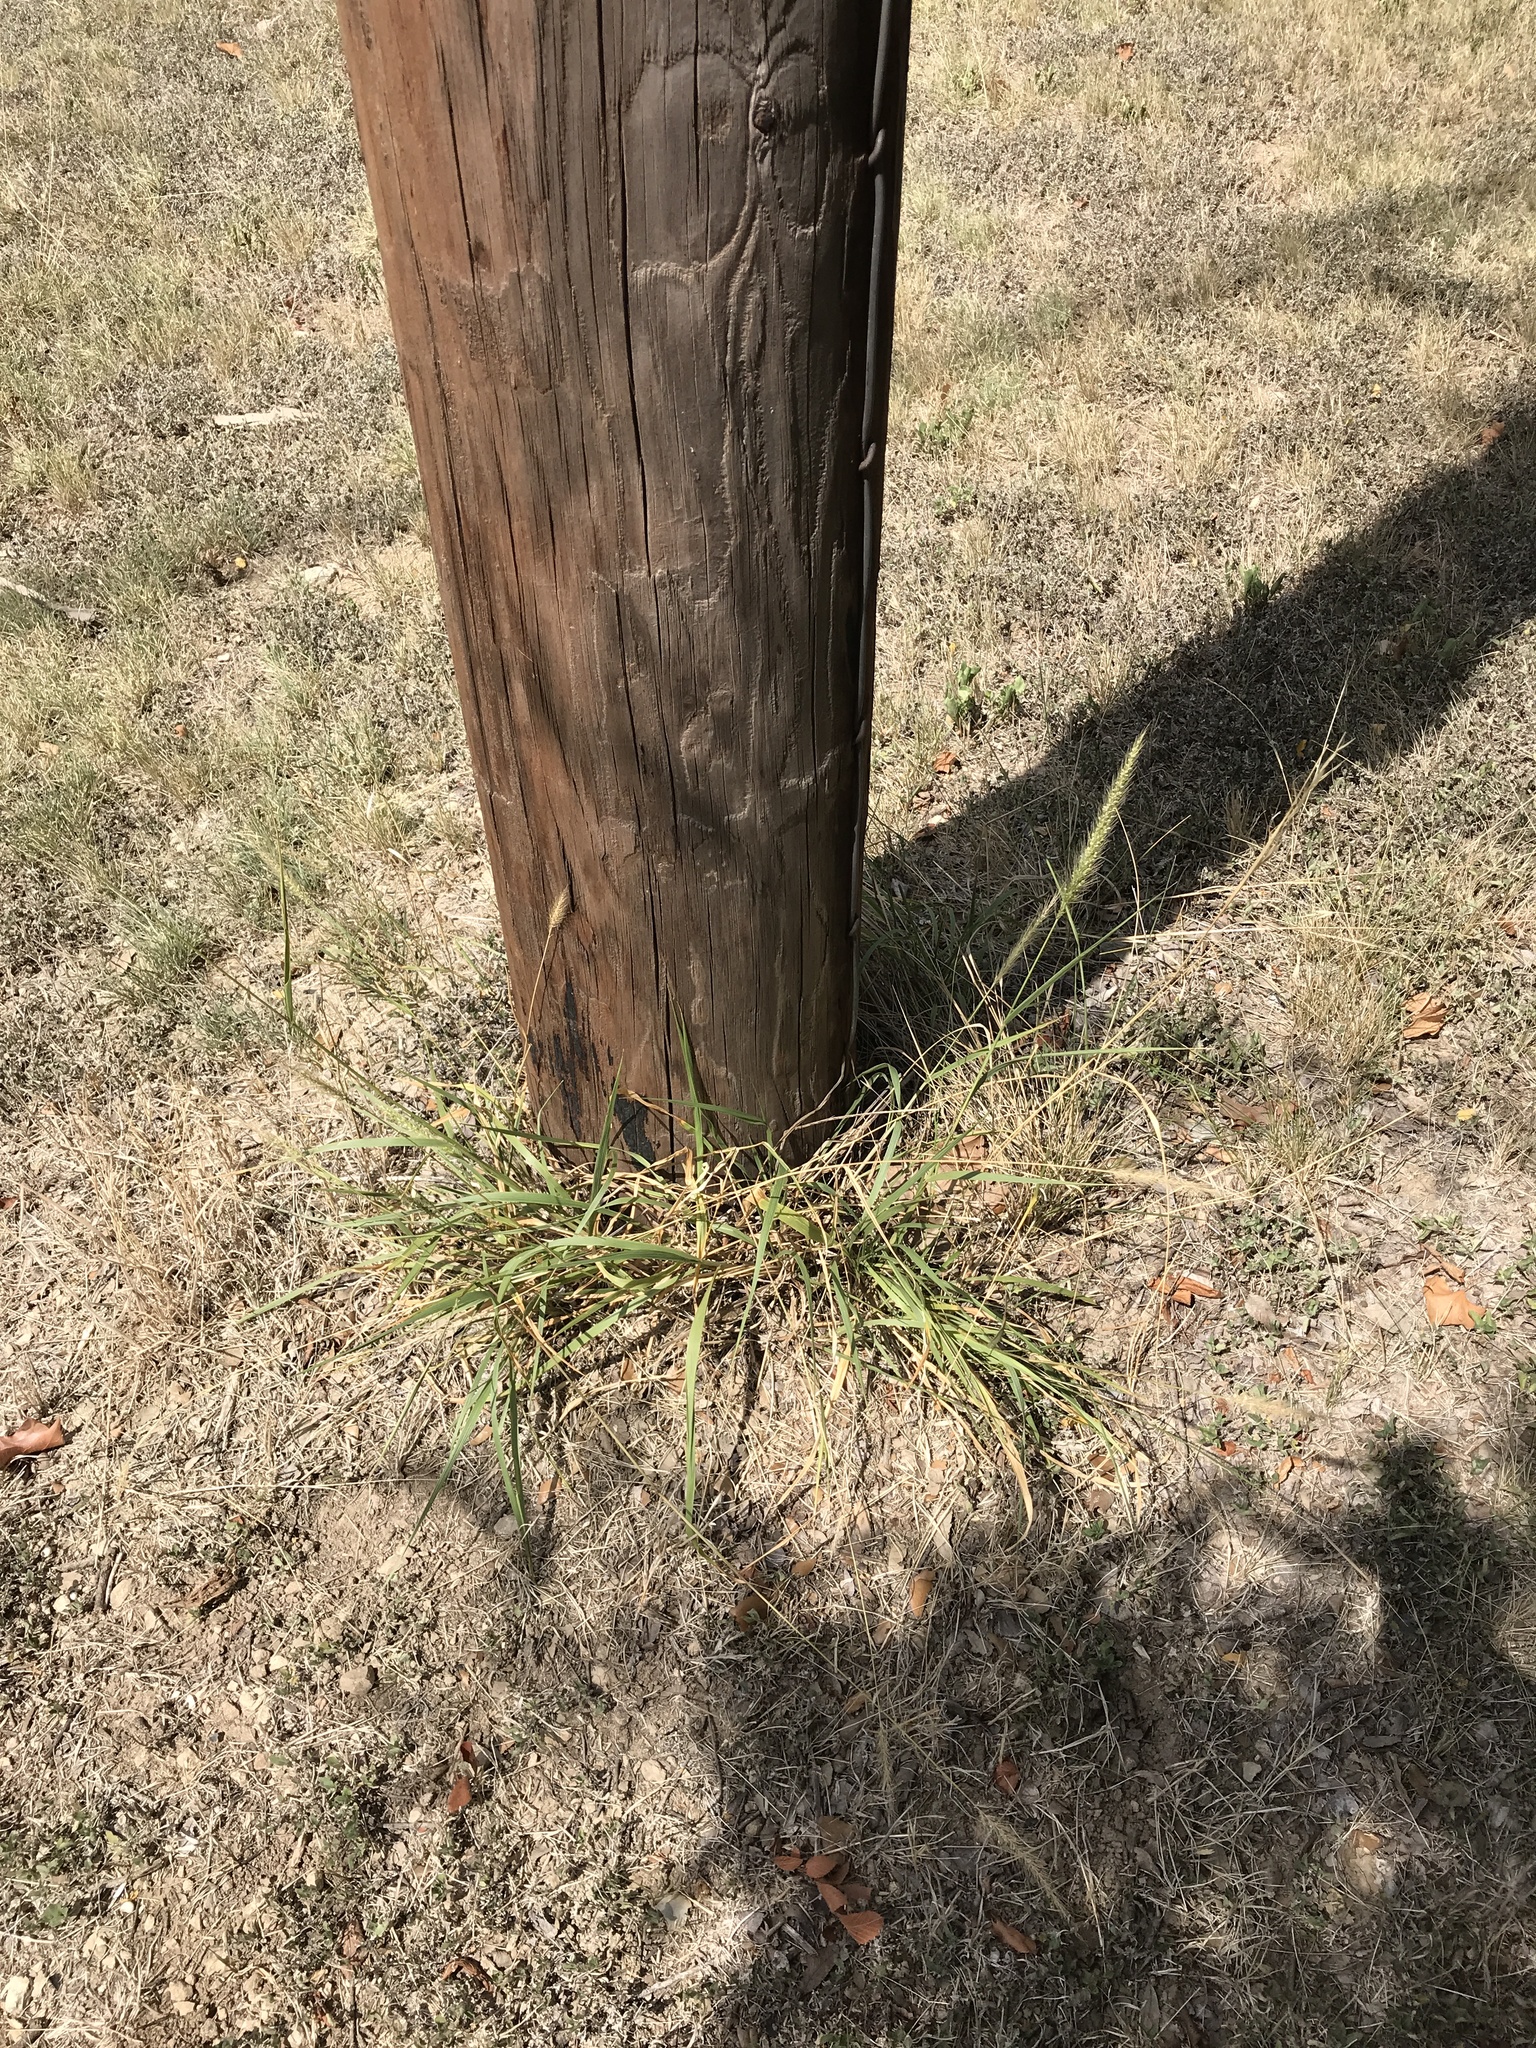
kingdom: Plantae
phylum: Tracheophyta
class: Liliopsida
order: Poales
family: Poaceae
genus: Setaria
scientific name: Setaria scheelei
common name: Southwestern bristle grass
